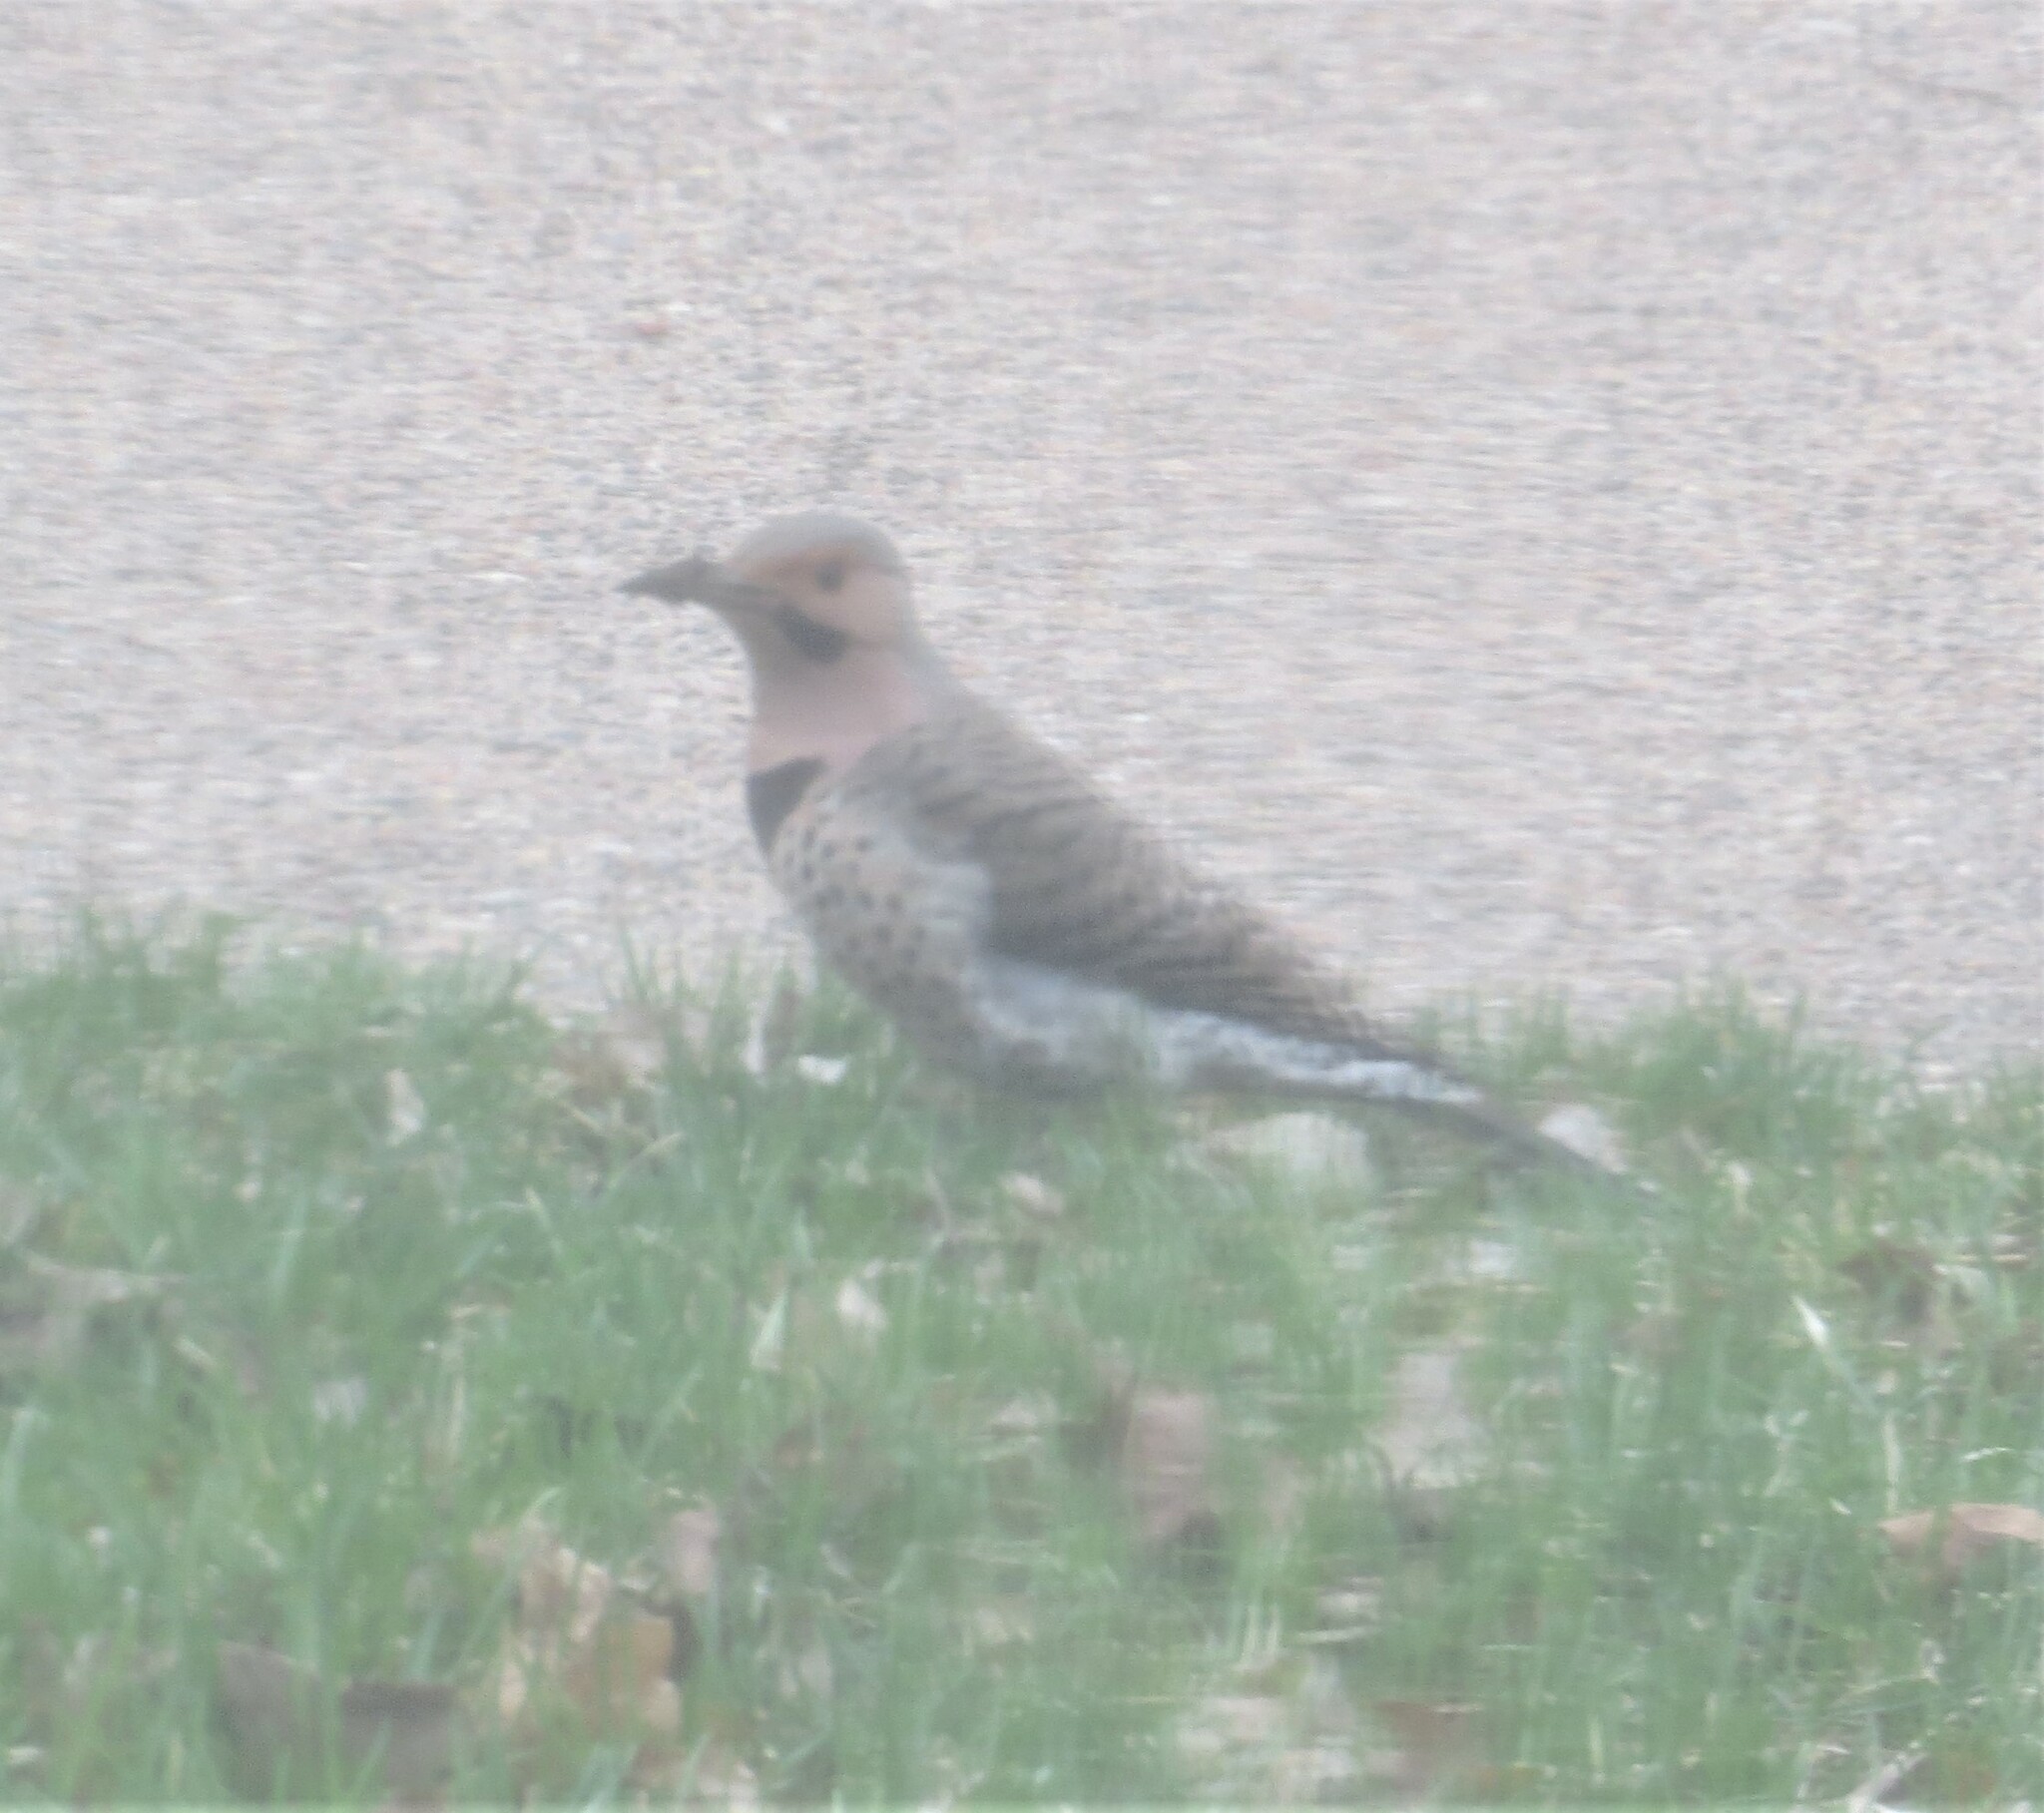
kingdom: Animalia
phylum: Chordata
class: Aves
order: Piciformes
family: Picidae
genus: Colaptes
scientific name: Colaptes auratus
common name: Northern flicker
